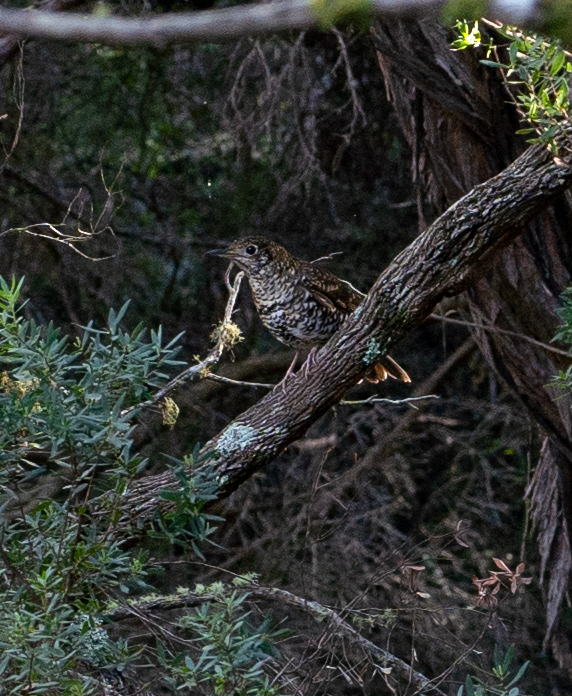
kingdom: Animalia
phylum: Chordata
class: Aves
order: Passeriformes
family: Turdidae
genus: Zoothera
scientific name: Zoothera lunulata
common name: Bassian thrush
